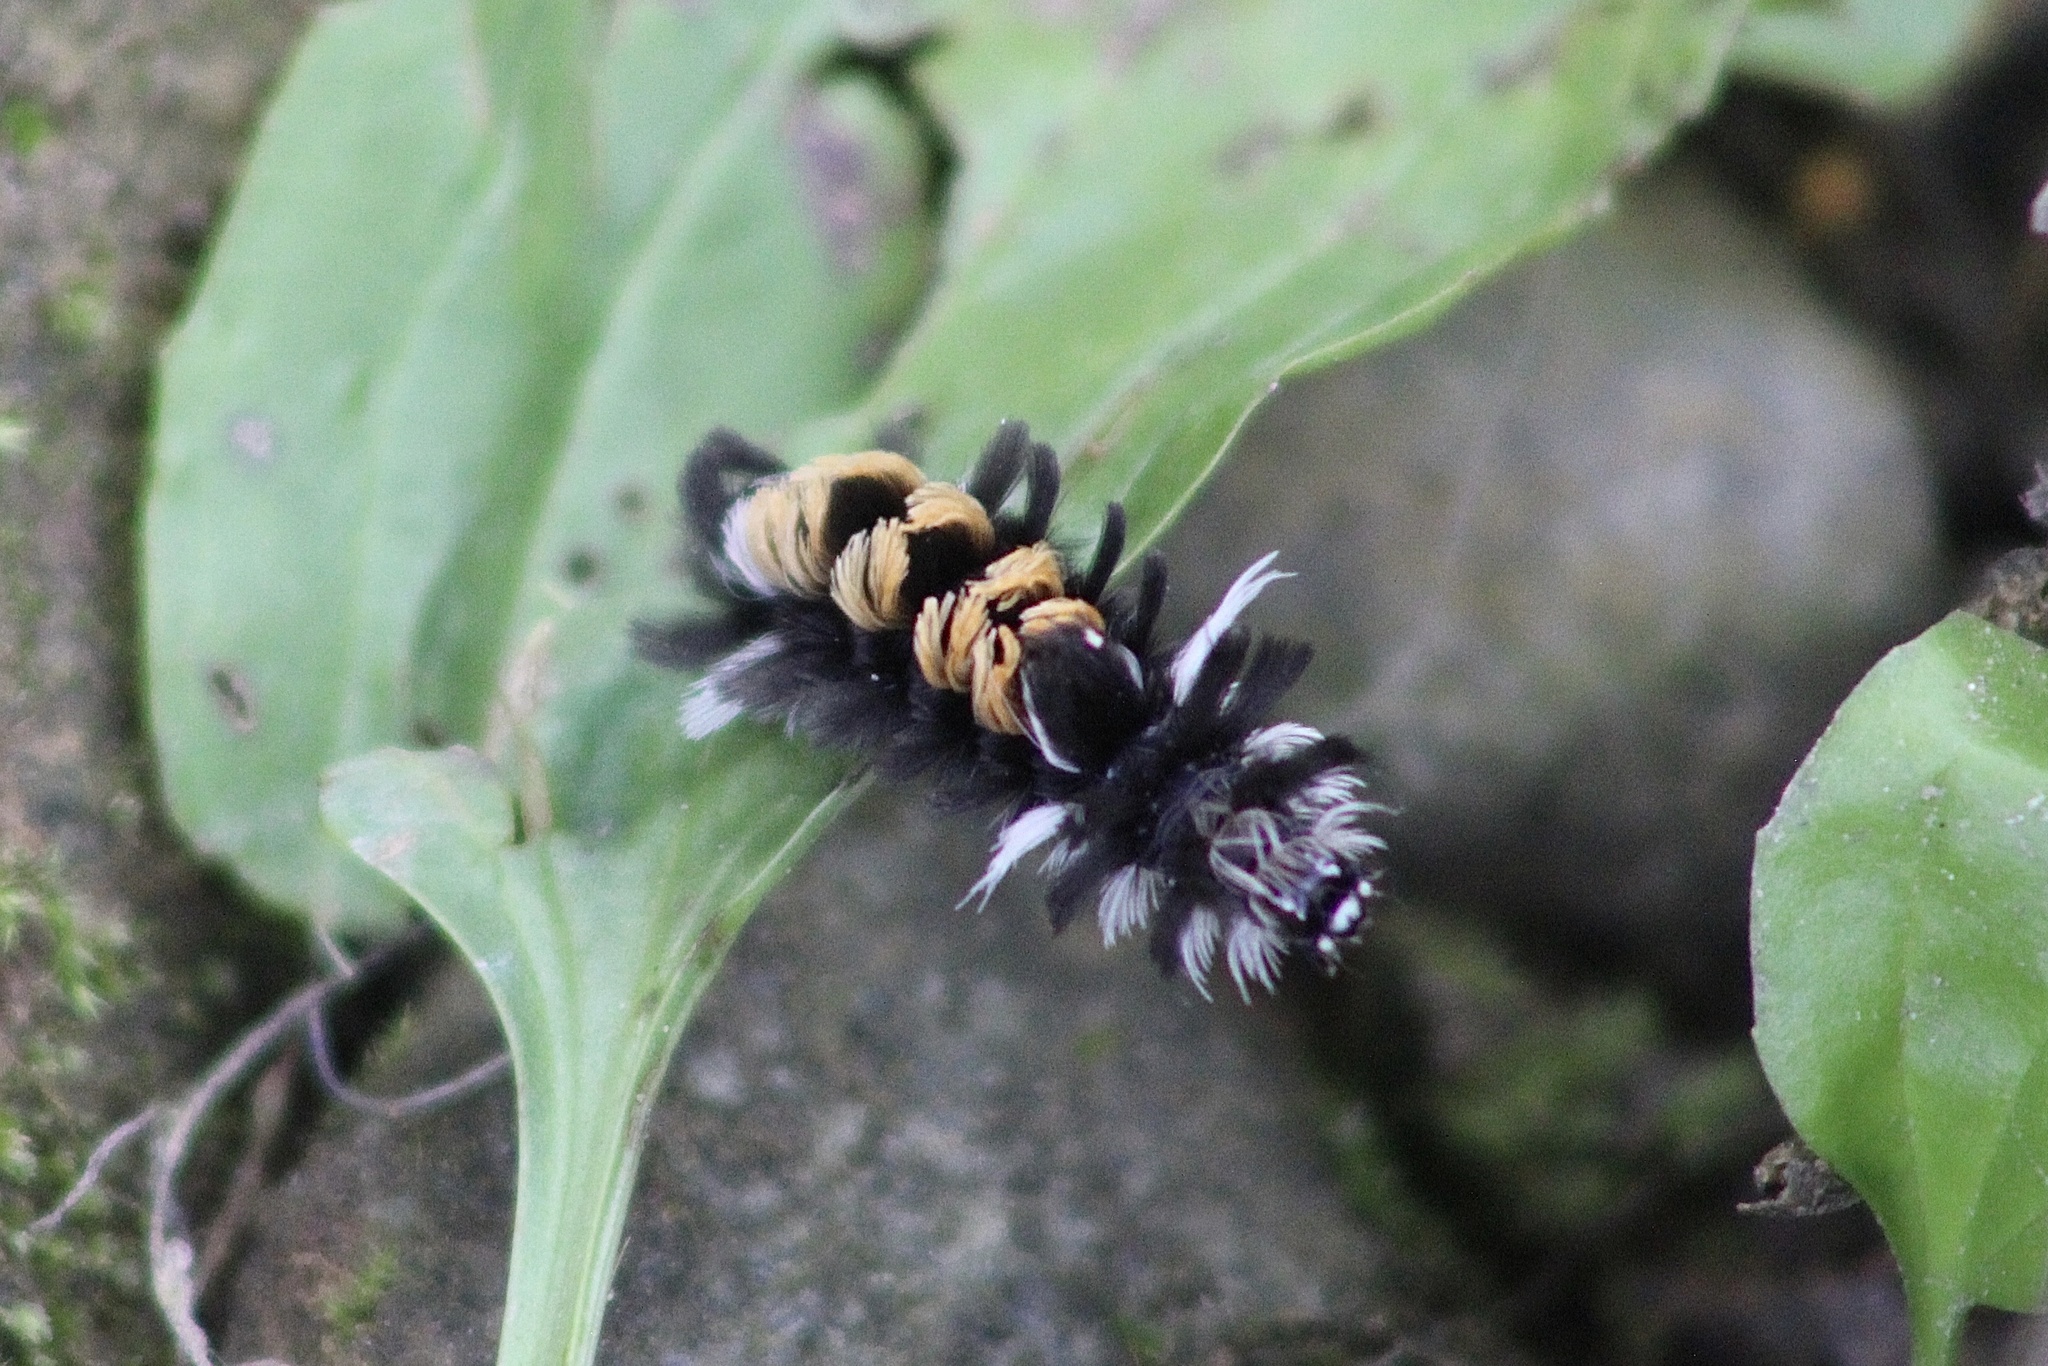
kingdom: Animalia
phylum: Arthropoda
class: Insecta
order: Lepidoptera
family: Erebidae
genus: Euchaetes
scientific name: Euchaetes egle
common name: Milkweed tussock moth
